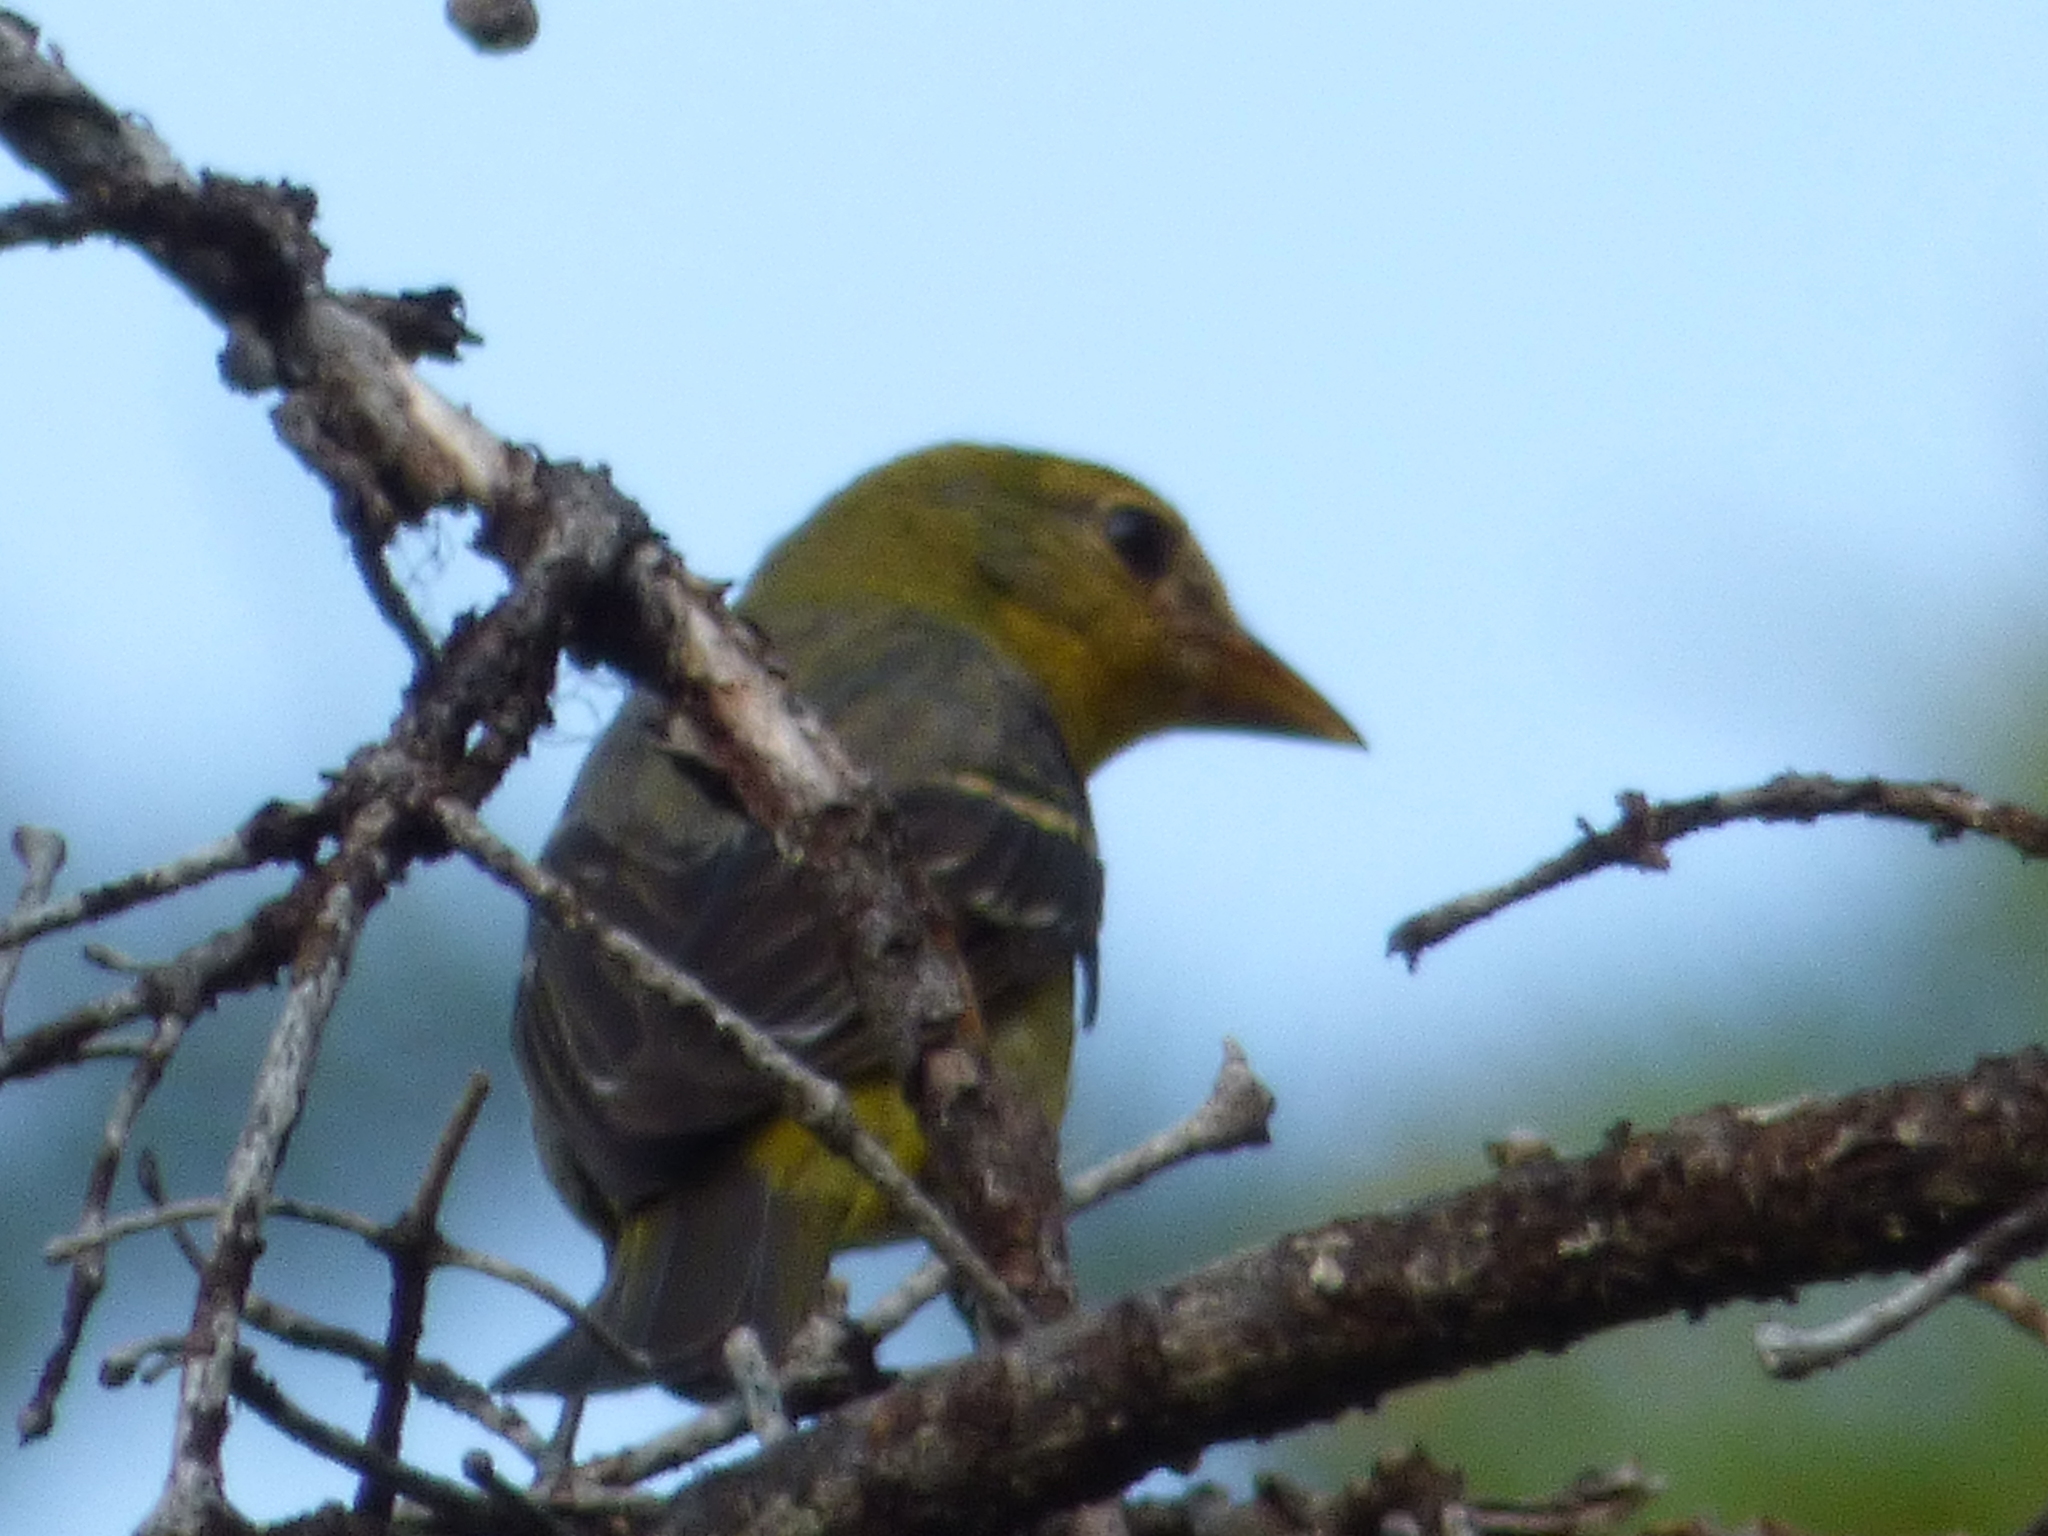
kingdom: Animalia
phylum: Chordata
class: Aves
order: Passeriformes
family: Cardinalidae
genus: Piranga
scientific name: Piranga ludoviciana
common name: Western tanager
